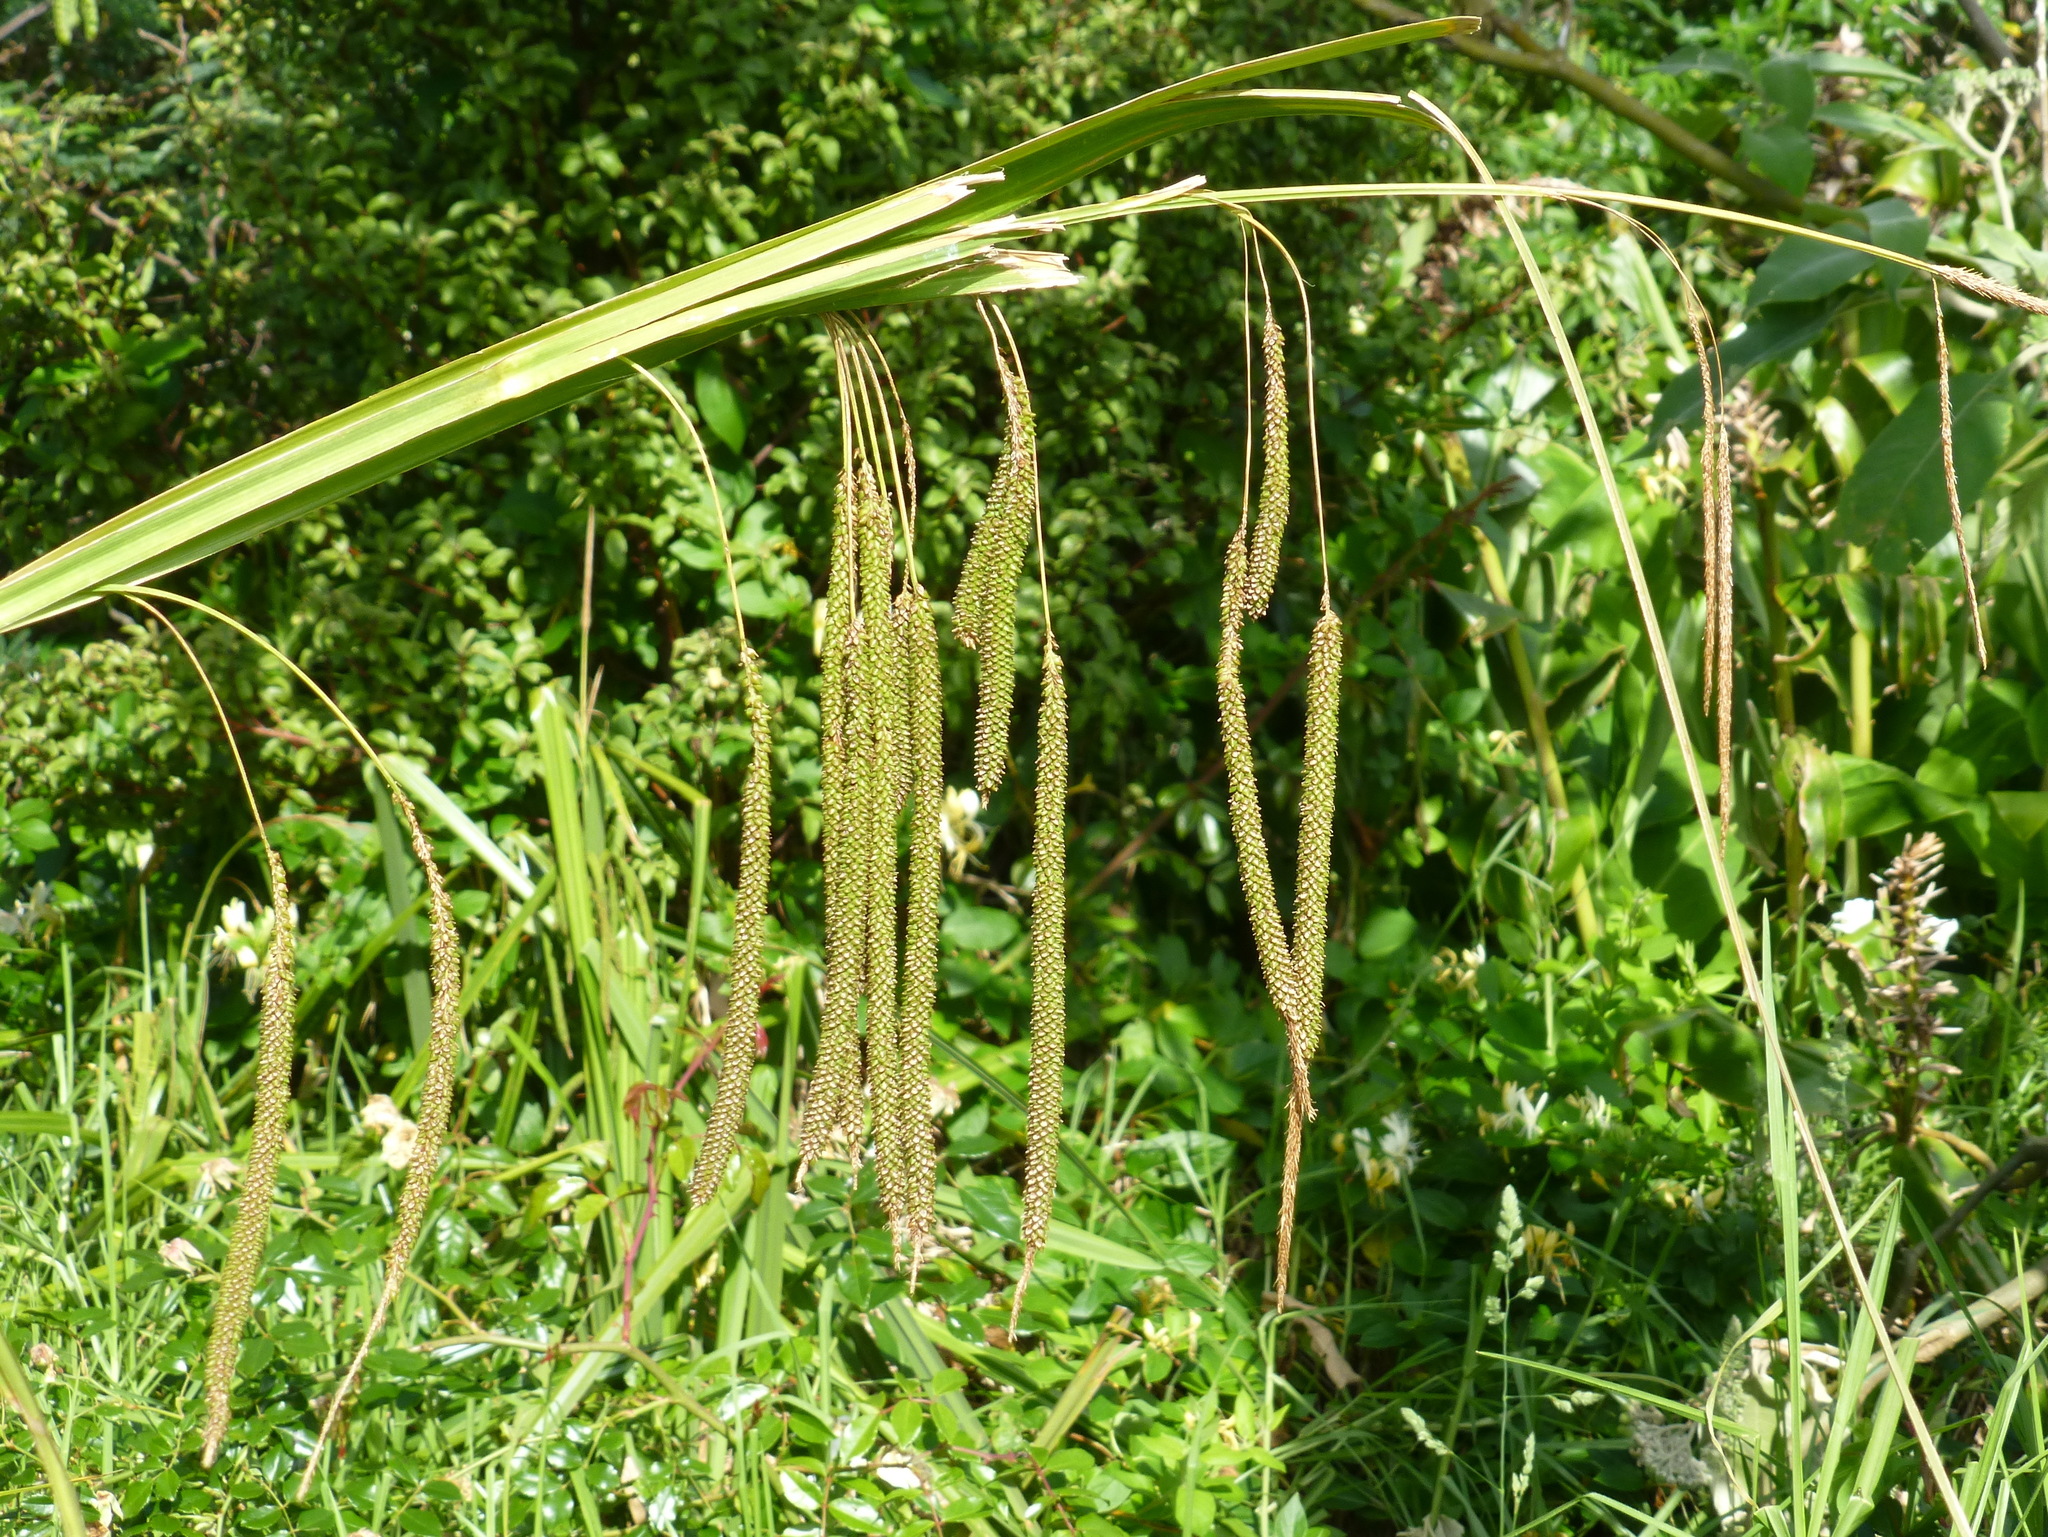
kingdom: Plantae
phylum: Tracheophyta
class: Liliopsida
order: Poales
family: Cyperaceae
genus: Carex
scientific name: Carex geminata
